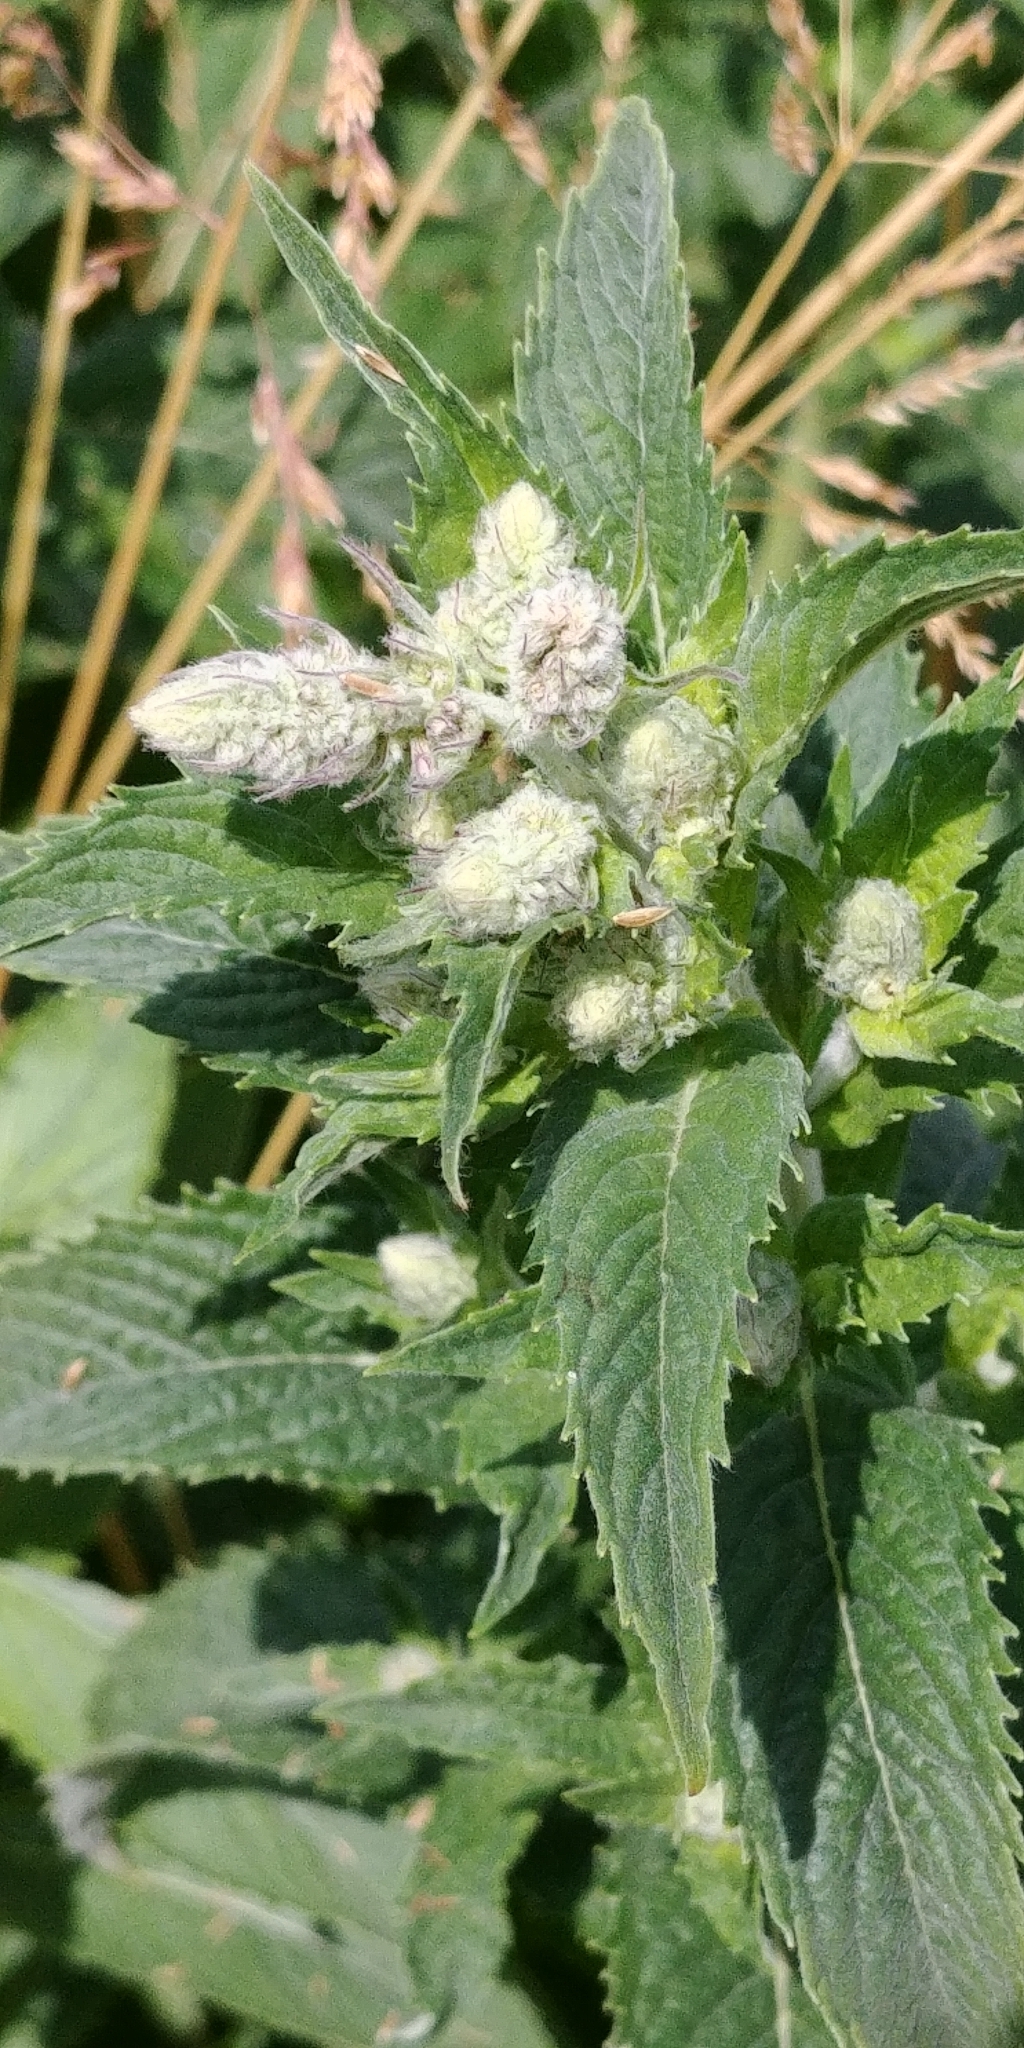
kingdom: Plantae
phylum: Tracheophyta
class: Magnoliopsida
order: Lamiales
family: Lamiaceae
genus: Mentha
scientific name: Mentha longifolia
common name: Horse mint
